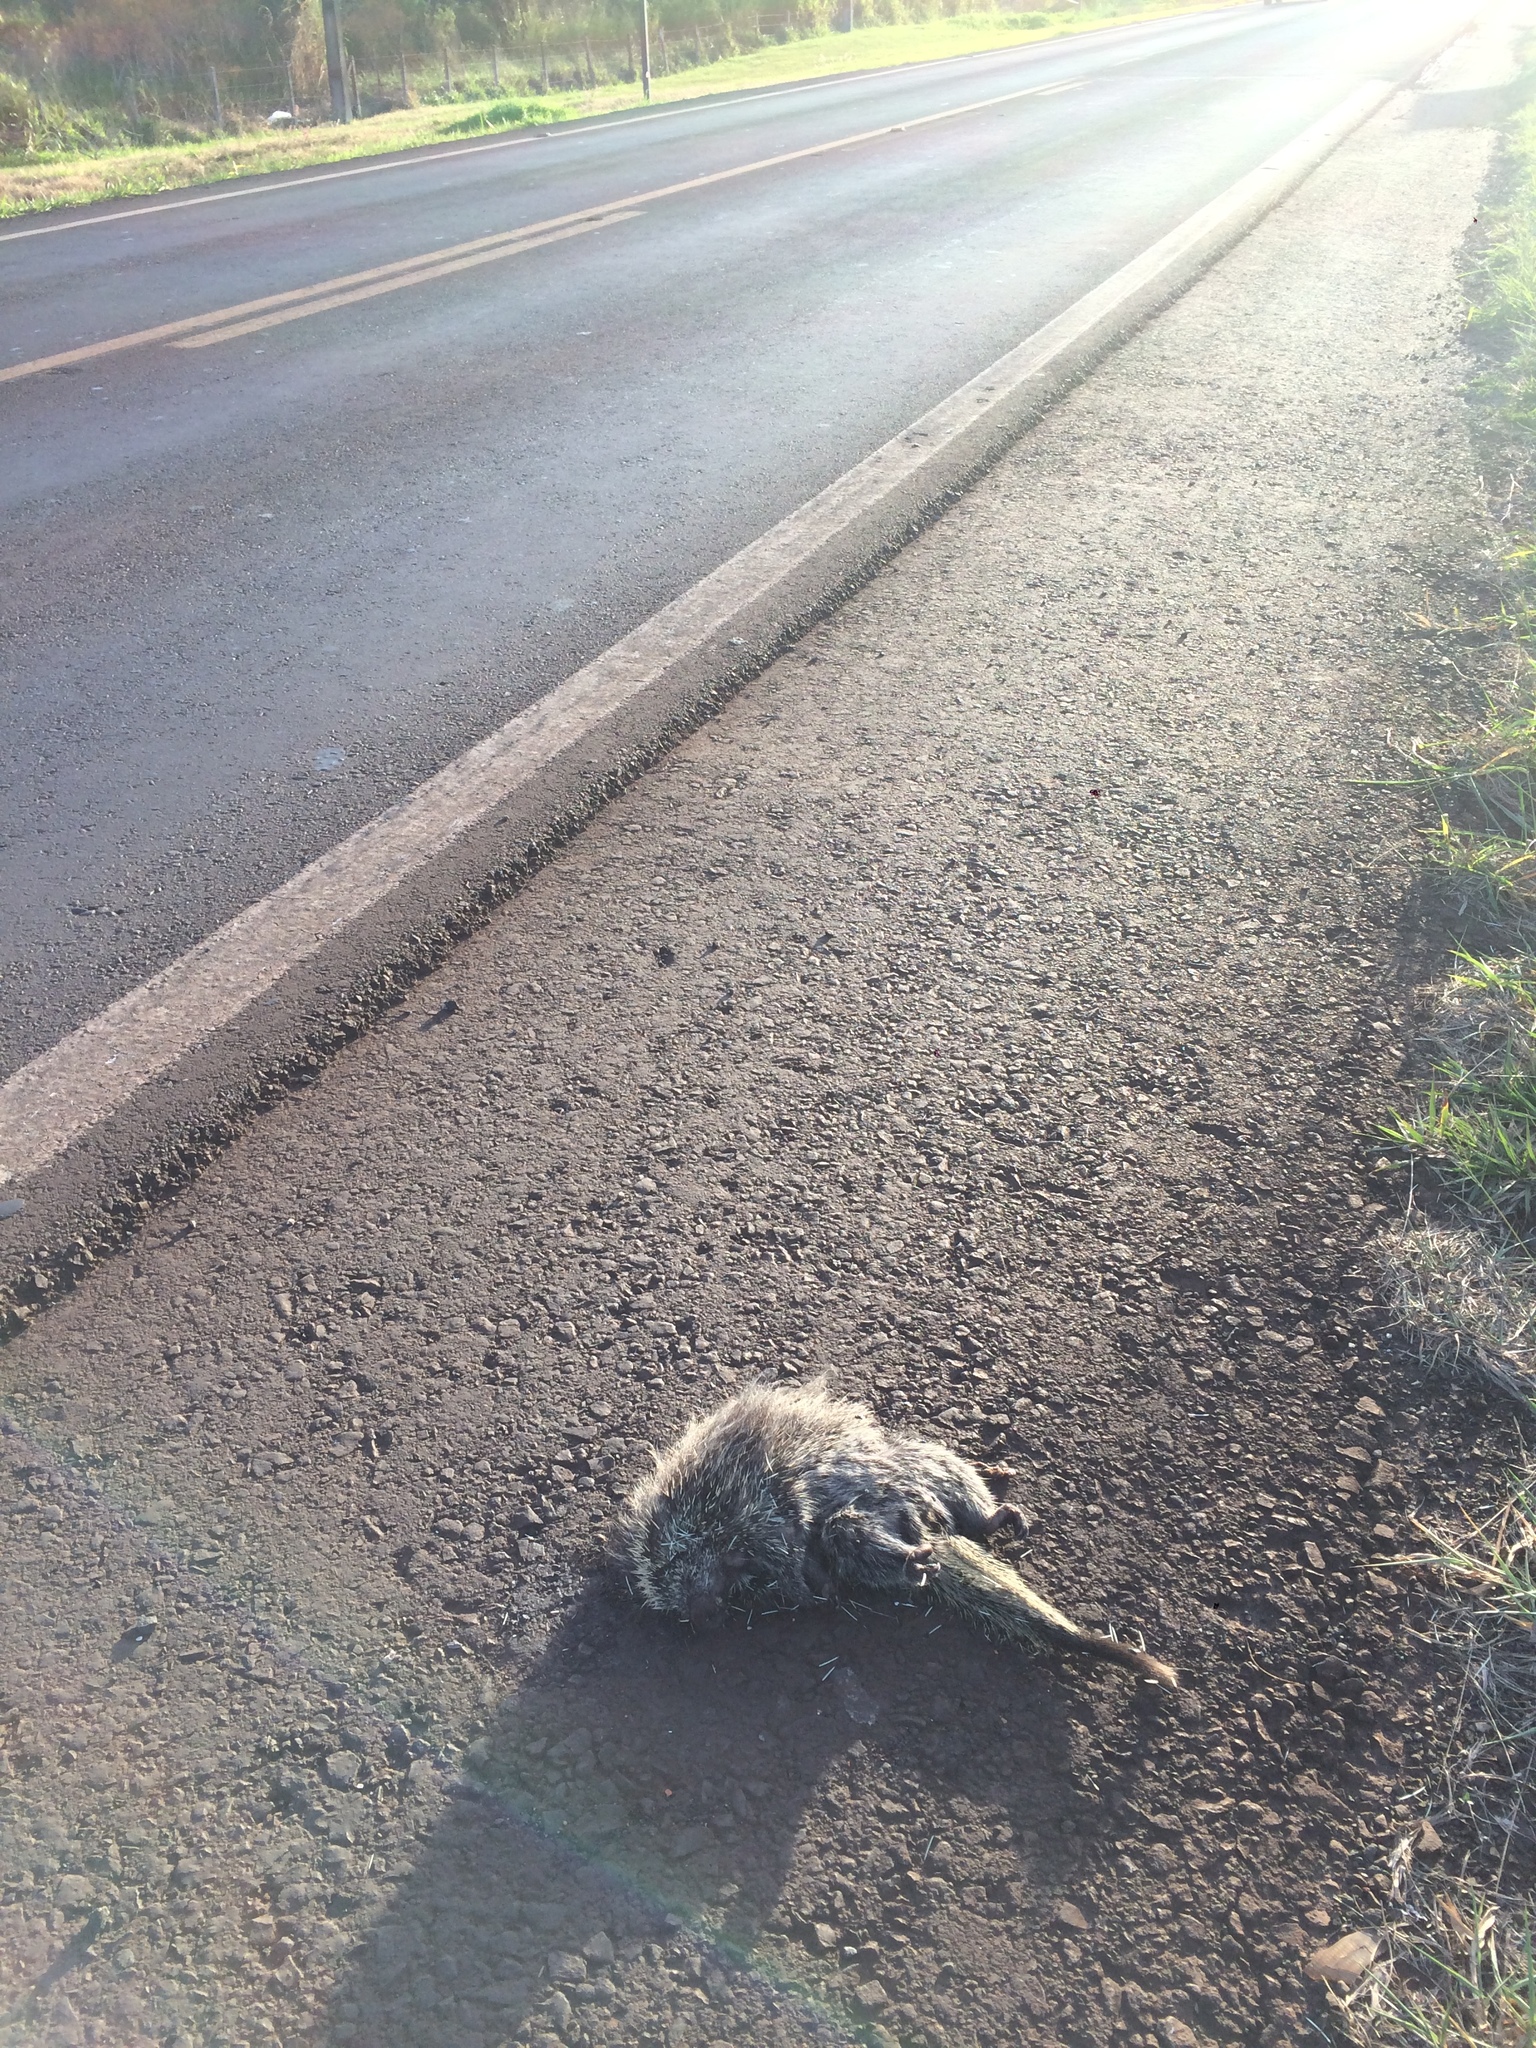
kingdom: Animalia
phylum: Chordata
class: Mammalia
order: Rodentia
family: Erethizontidae
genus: Sphiggurus
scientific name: Sphiggurus spinosus
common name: Paraguaian hairy dwarf porcupine
